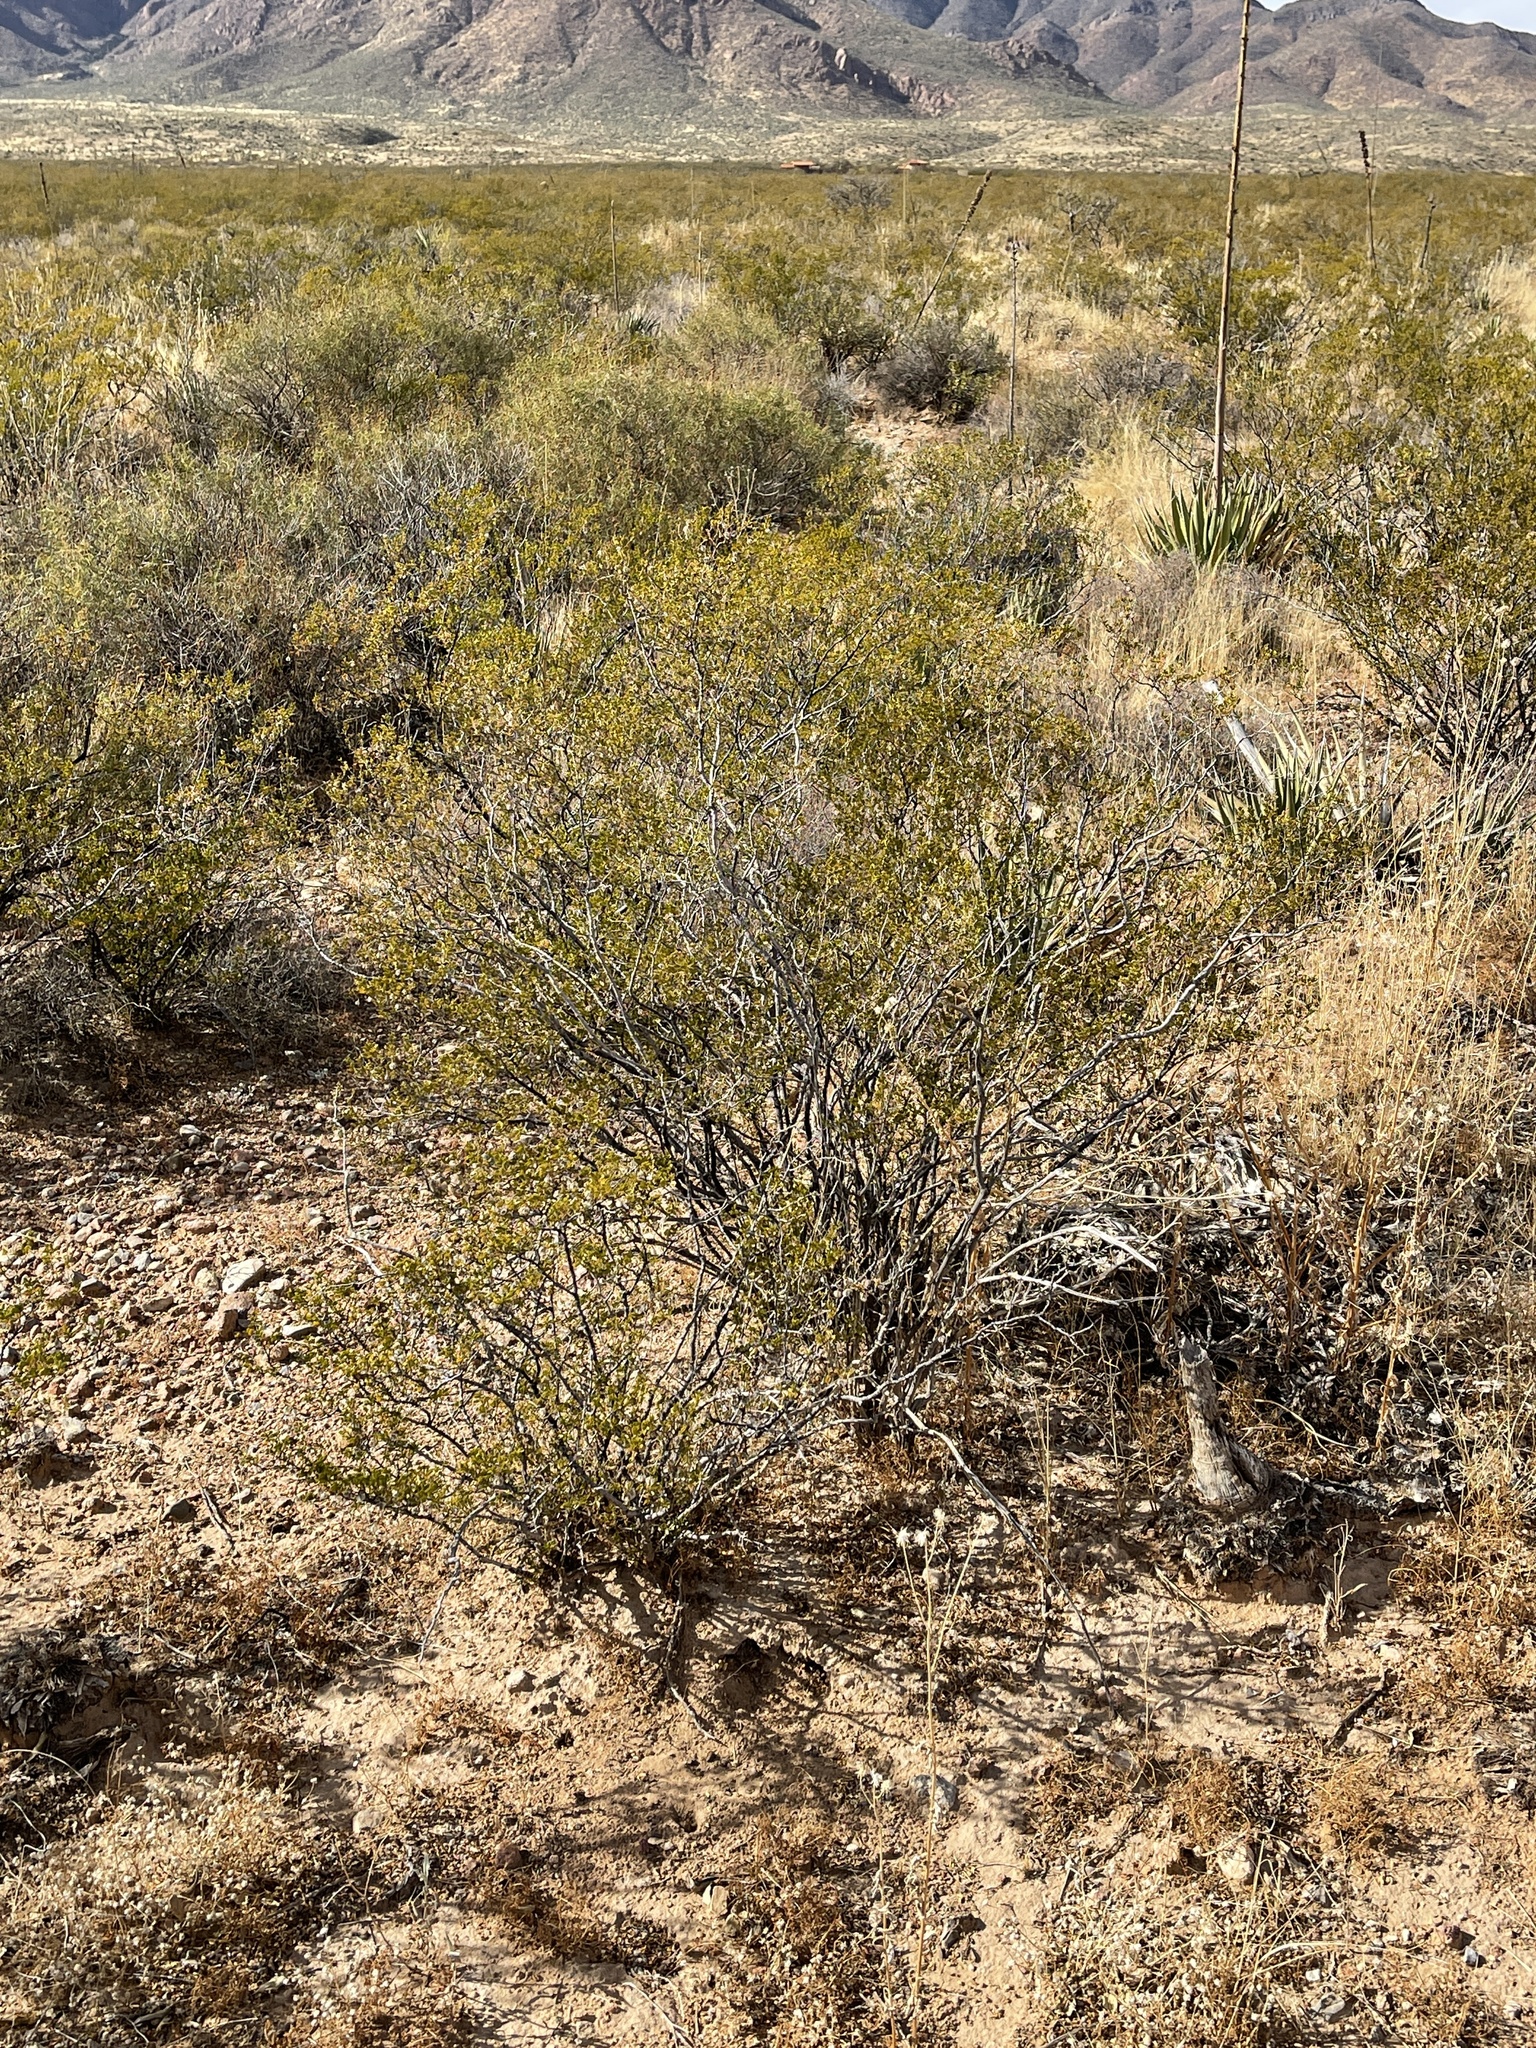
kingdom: Plantae
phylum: Tracheophyta
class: Magnoliopsida
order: Zygophyllales
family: Zygophyllaceae
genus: Larrea
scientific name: Larrea tridentata
